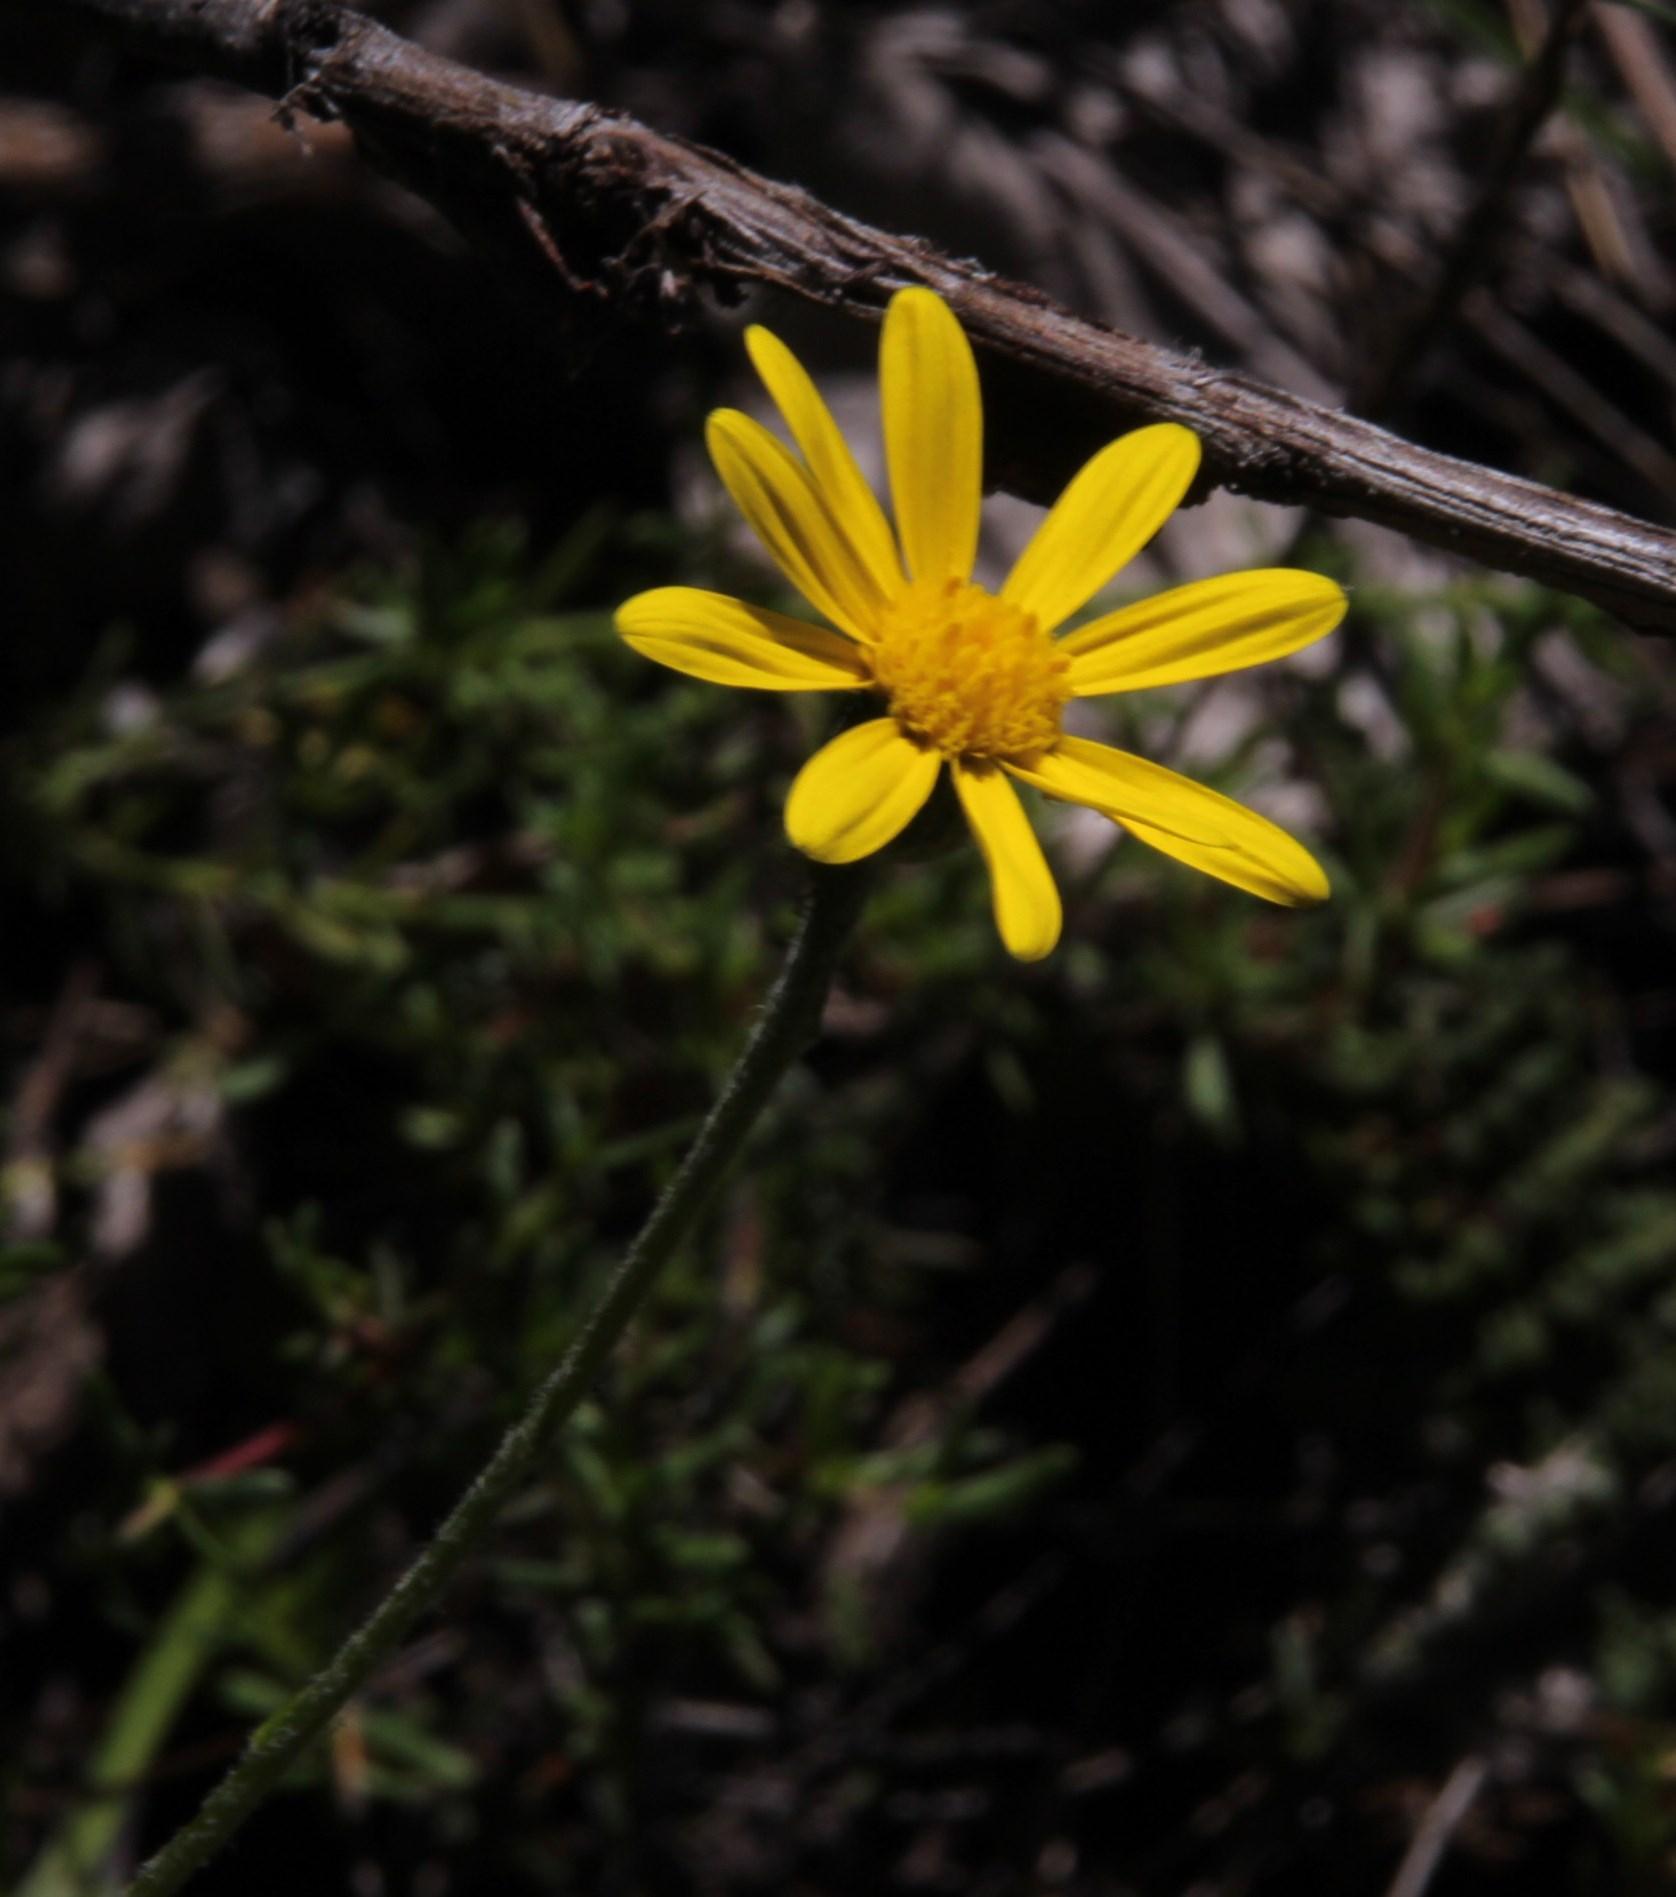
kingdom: Plantae
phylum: Tracheophyta
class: Magnoliopsida
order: Asterales
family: Asteraceae
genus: Bolandia
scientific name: Bolandia pedunculosa
